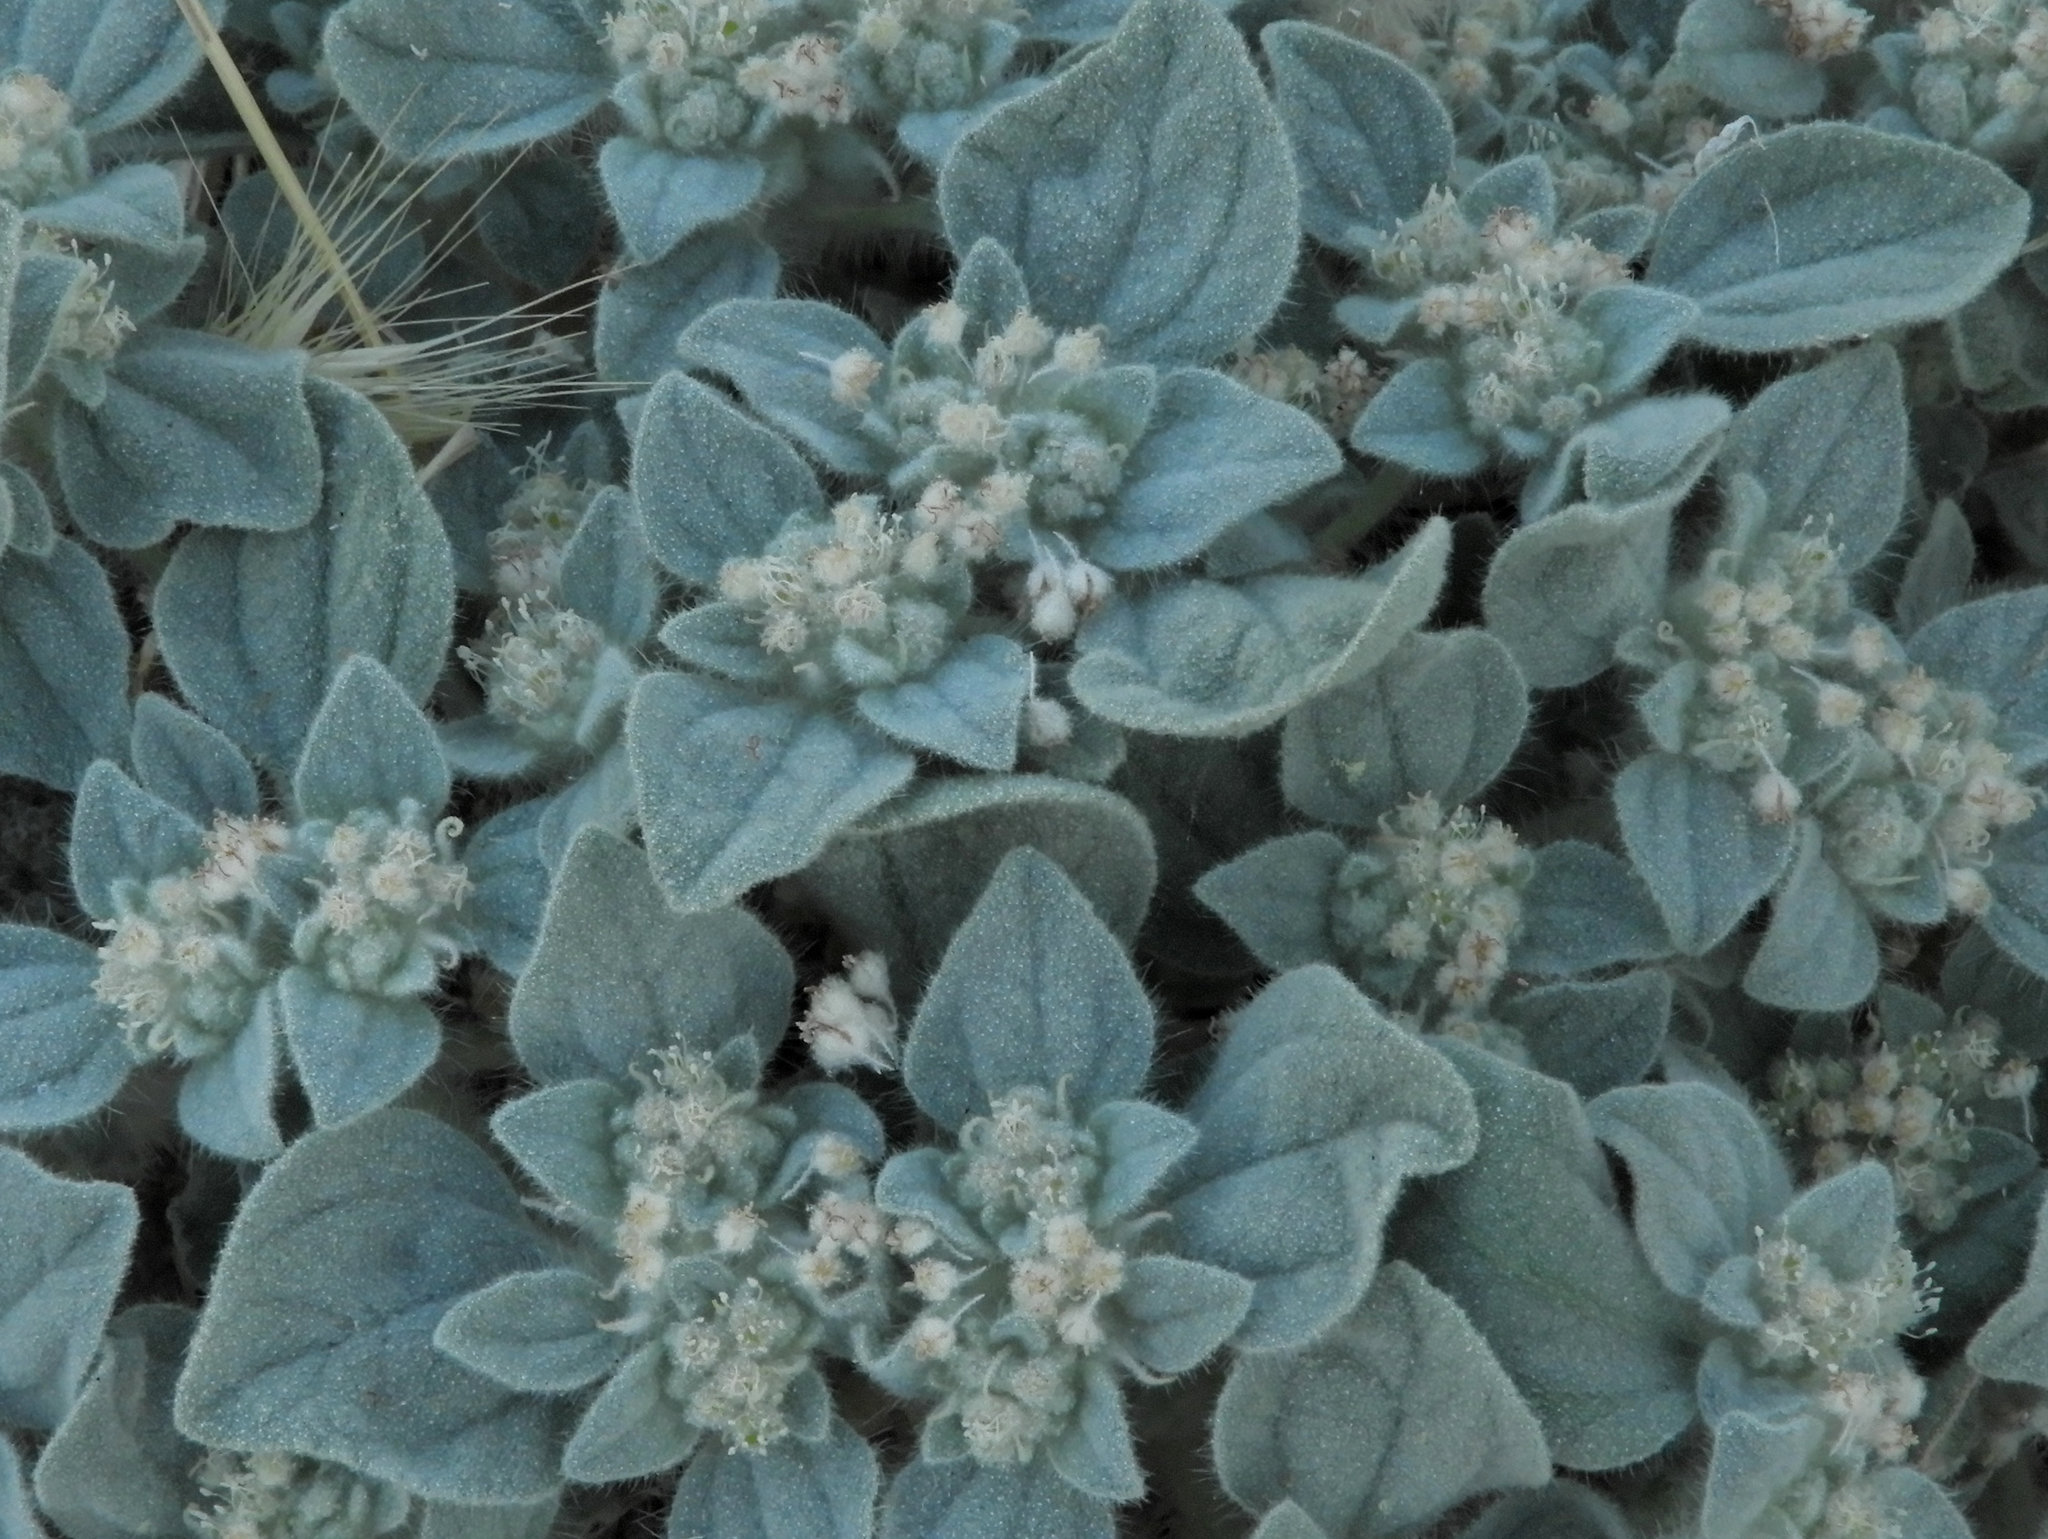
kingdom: Plantae
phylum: Tracheophyta
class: Magnoliopsida
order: Malpighiales
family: Euphorbiaceae
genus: Croton
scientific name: Croton setiger
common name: Dove weed
